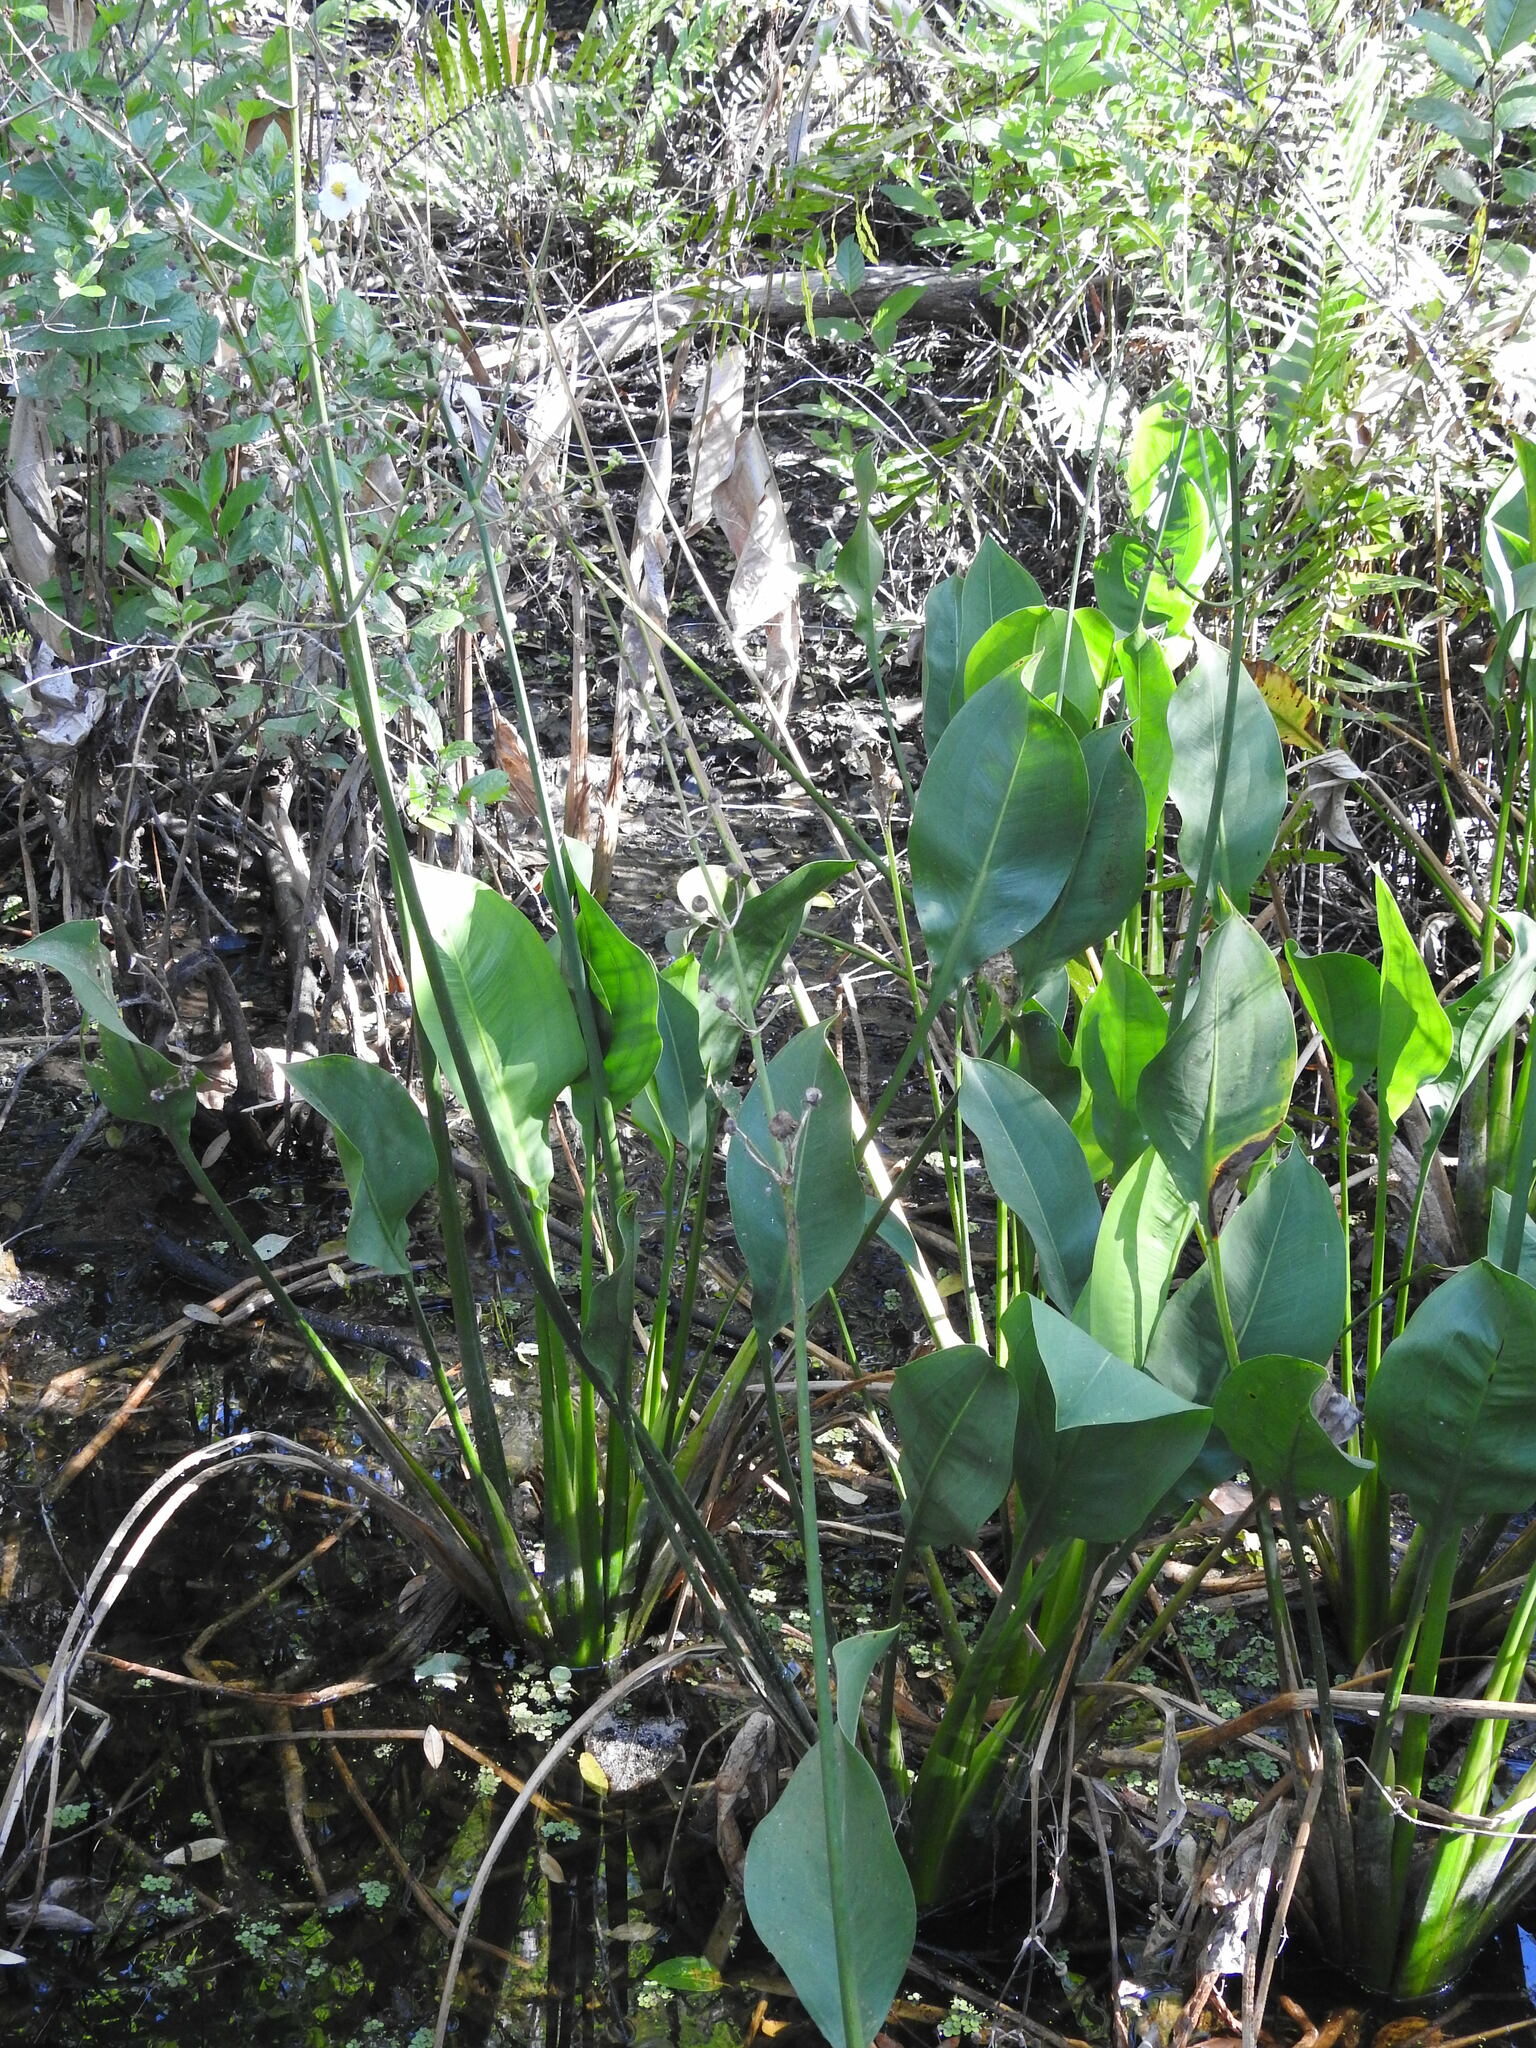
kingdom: Plantae
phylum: Tracheophyta
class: Liliopsida
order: Alismatales
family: Alismataceae
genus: Sagittaria
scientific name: Sagittaria lancifolia
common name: Lance-leaf arrowhead
